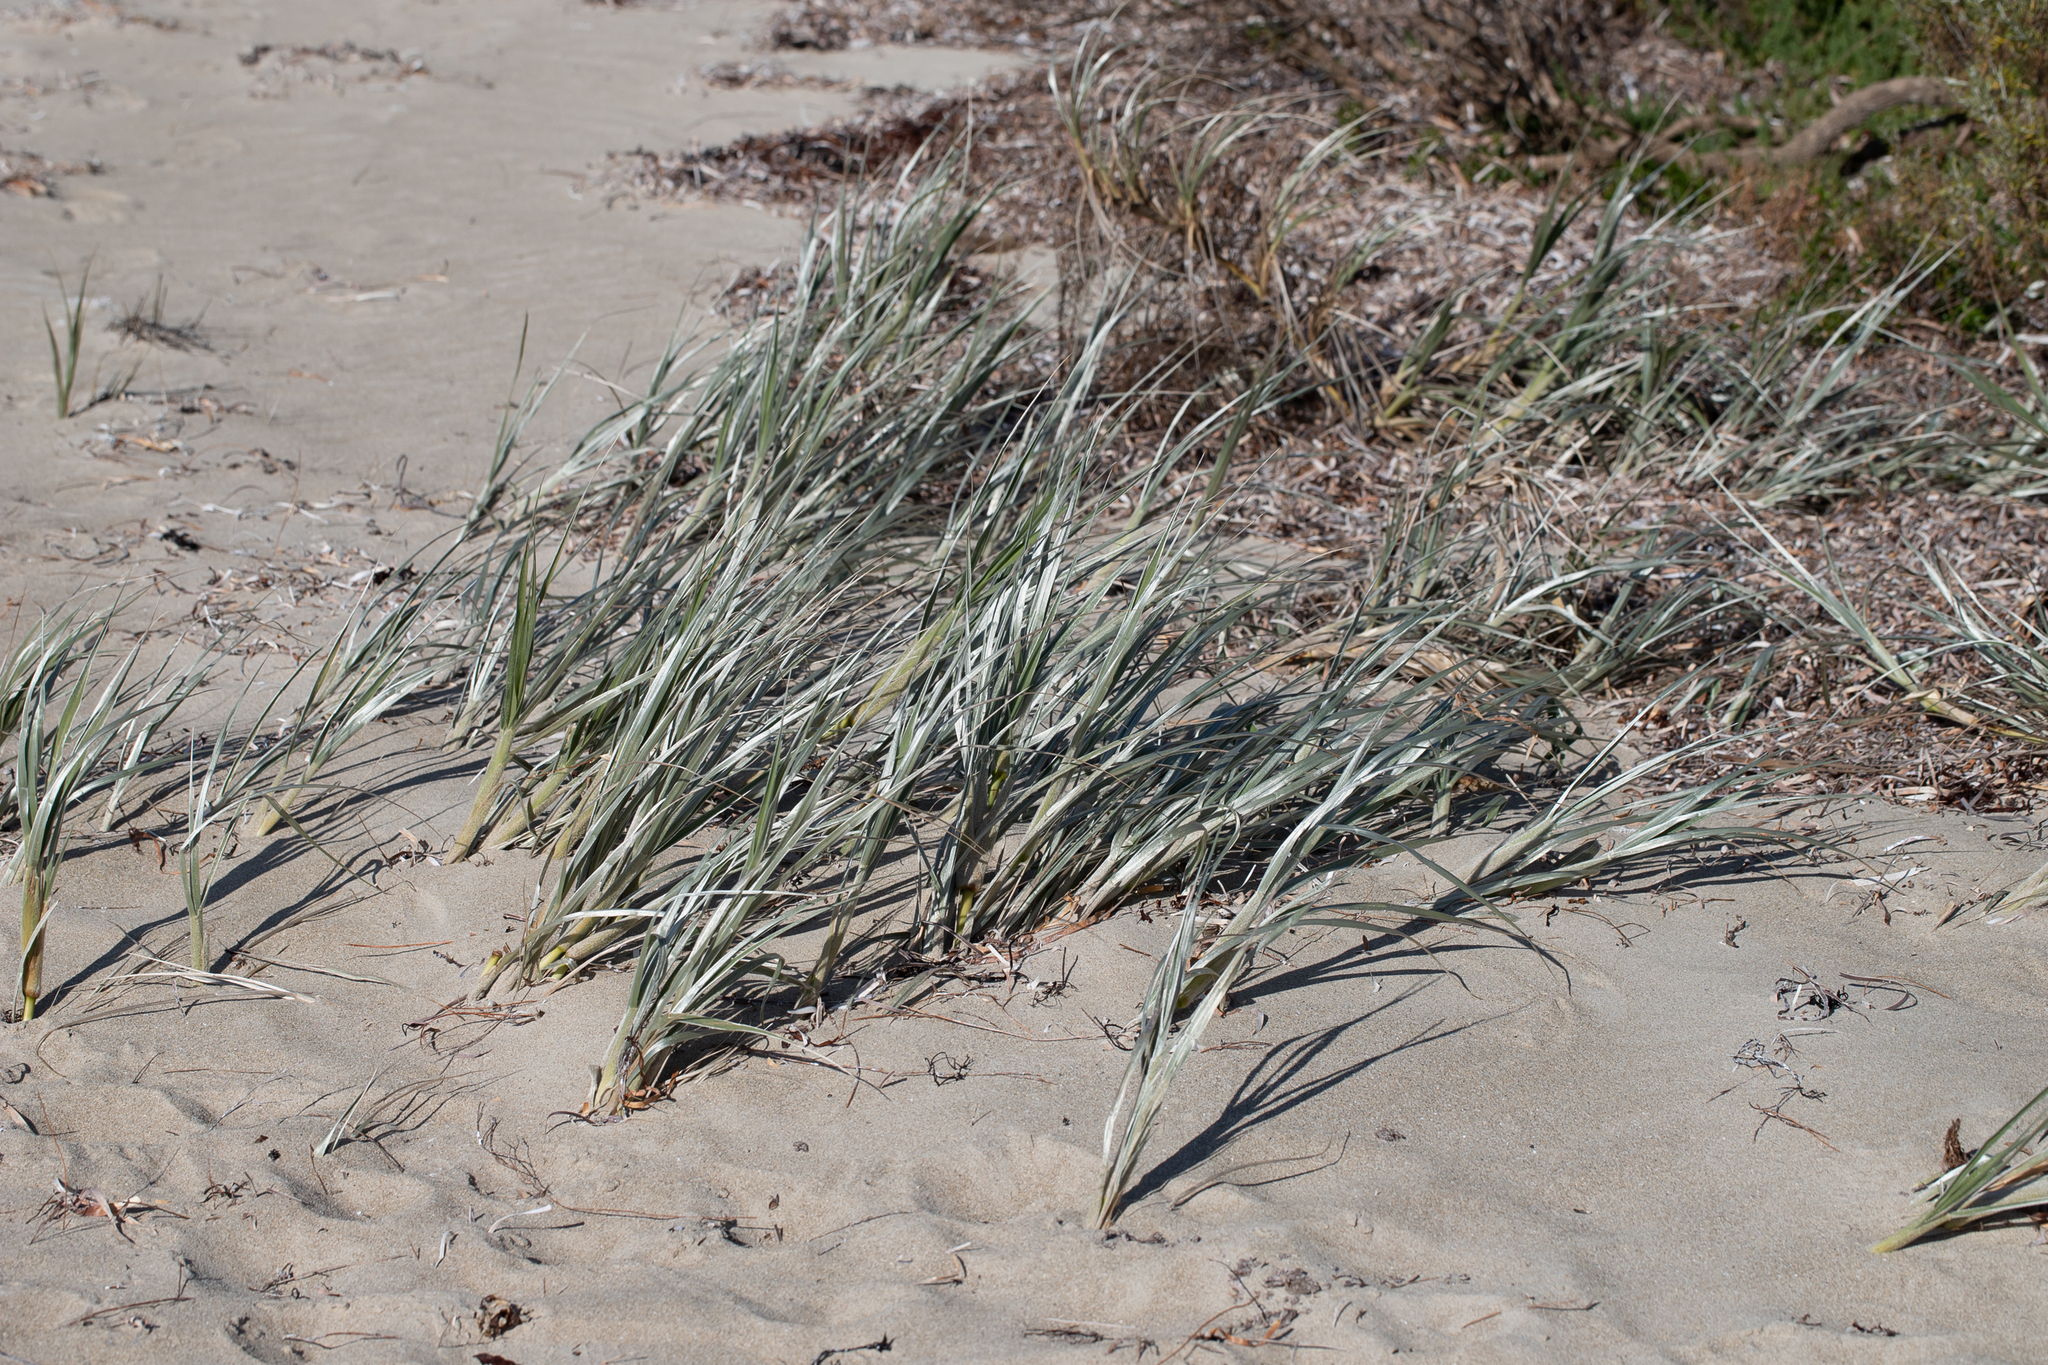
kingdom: Plantae
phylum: Tracheophyta
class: Liliopsida
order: Poales
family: Poaceae
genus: Spinifex
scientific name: Spinifex hirsutus
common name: Hairy spinifex
